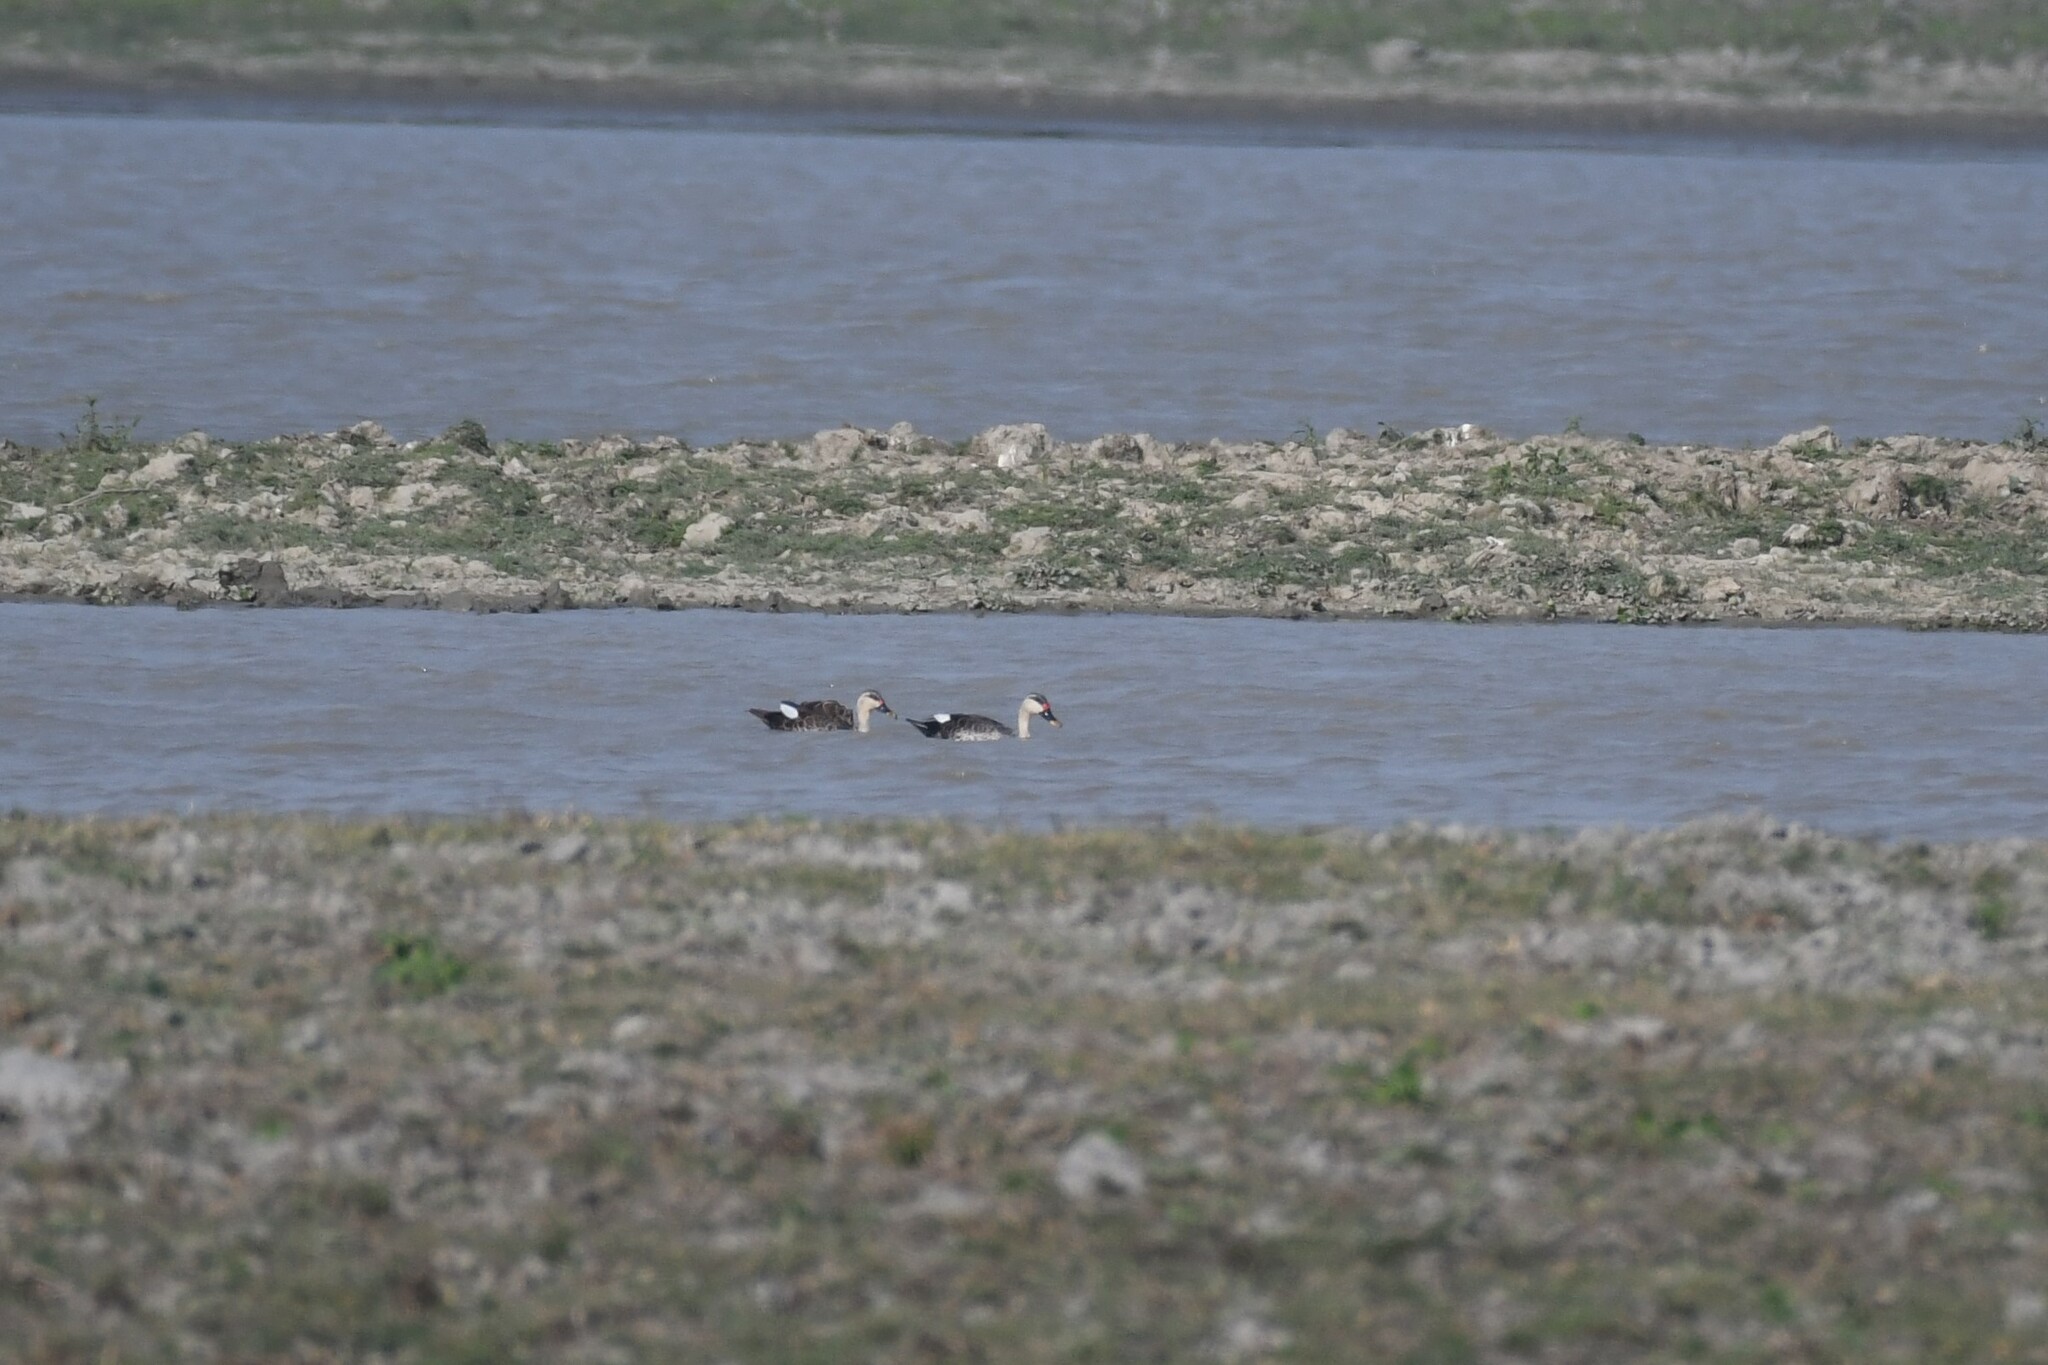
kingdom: Animalia
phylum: Chordata
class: Aves
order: Anseriformes
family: Anatidae
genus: Anas
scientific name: Anas poecilorhyncha
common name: Indian spot-billed duck
